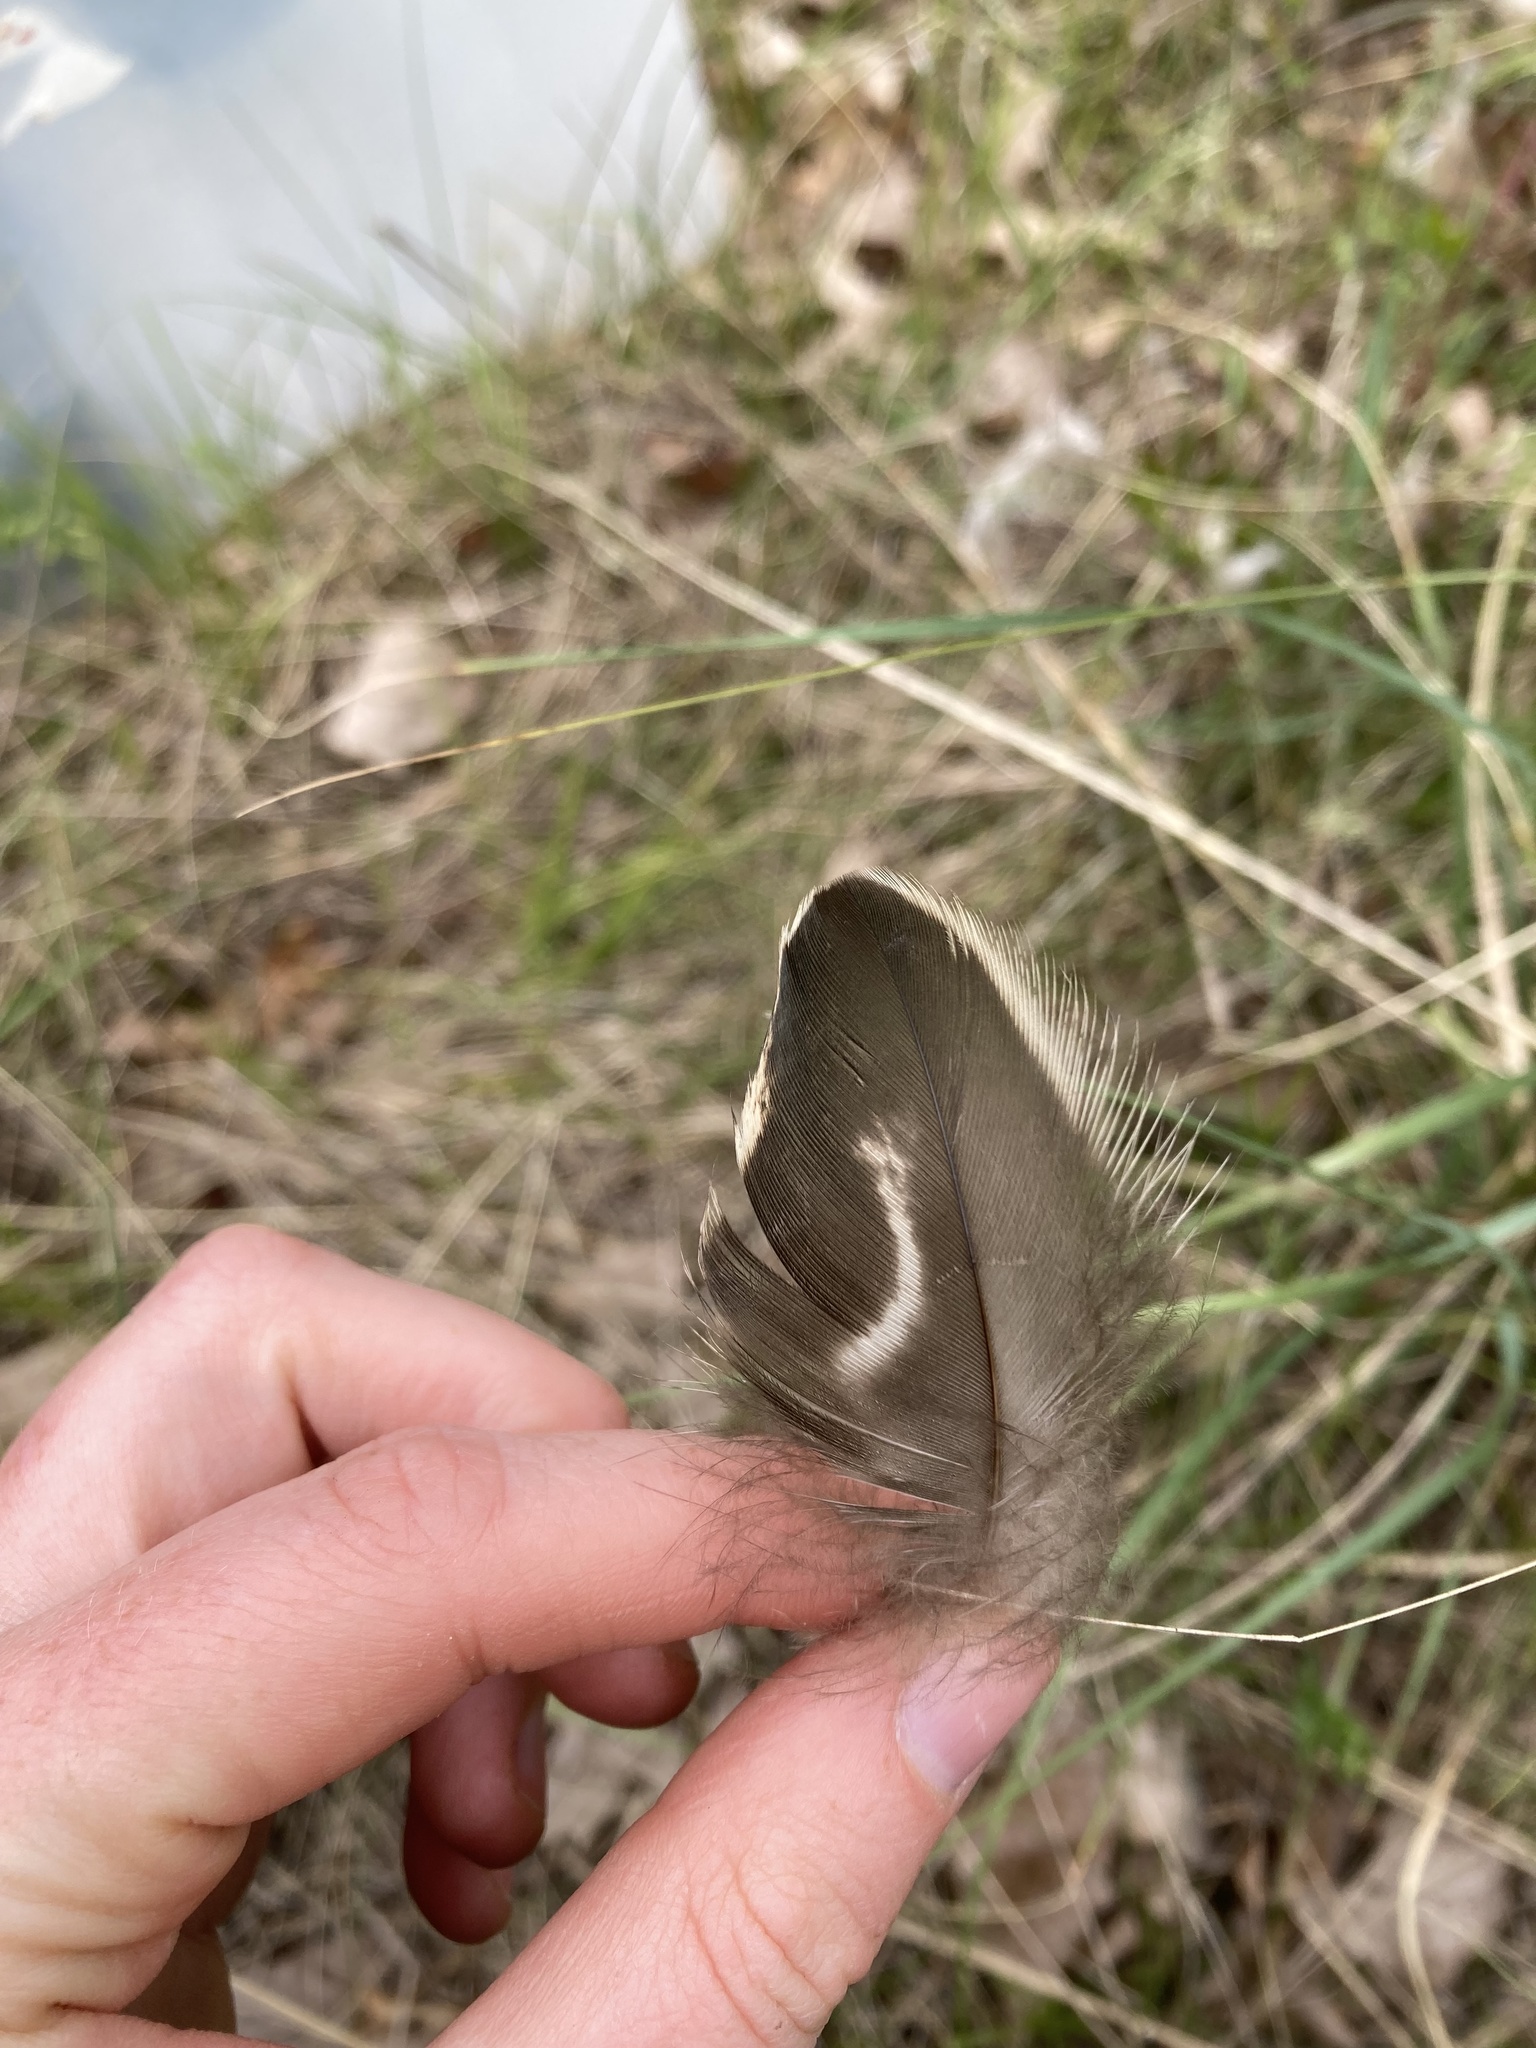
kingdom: Animalia
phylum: Chordata
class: Aves
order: Anseriformes
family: Anatidae
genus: Anas
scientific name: Anas platyrhynchos
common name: Mallard
